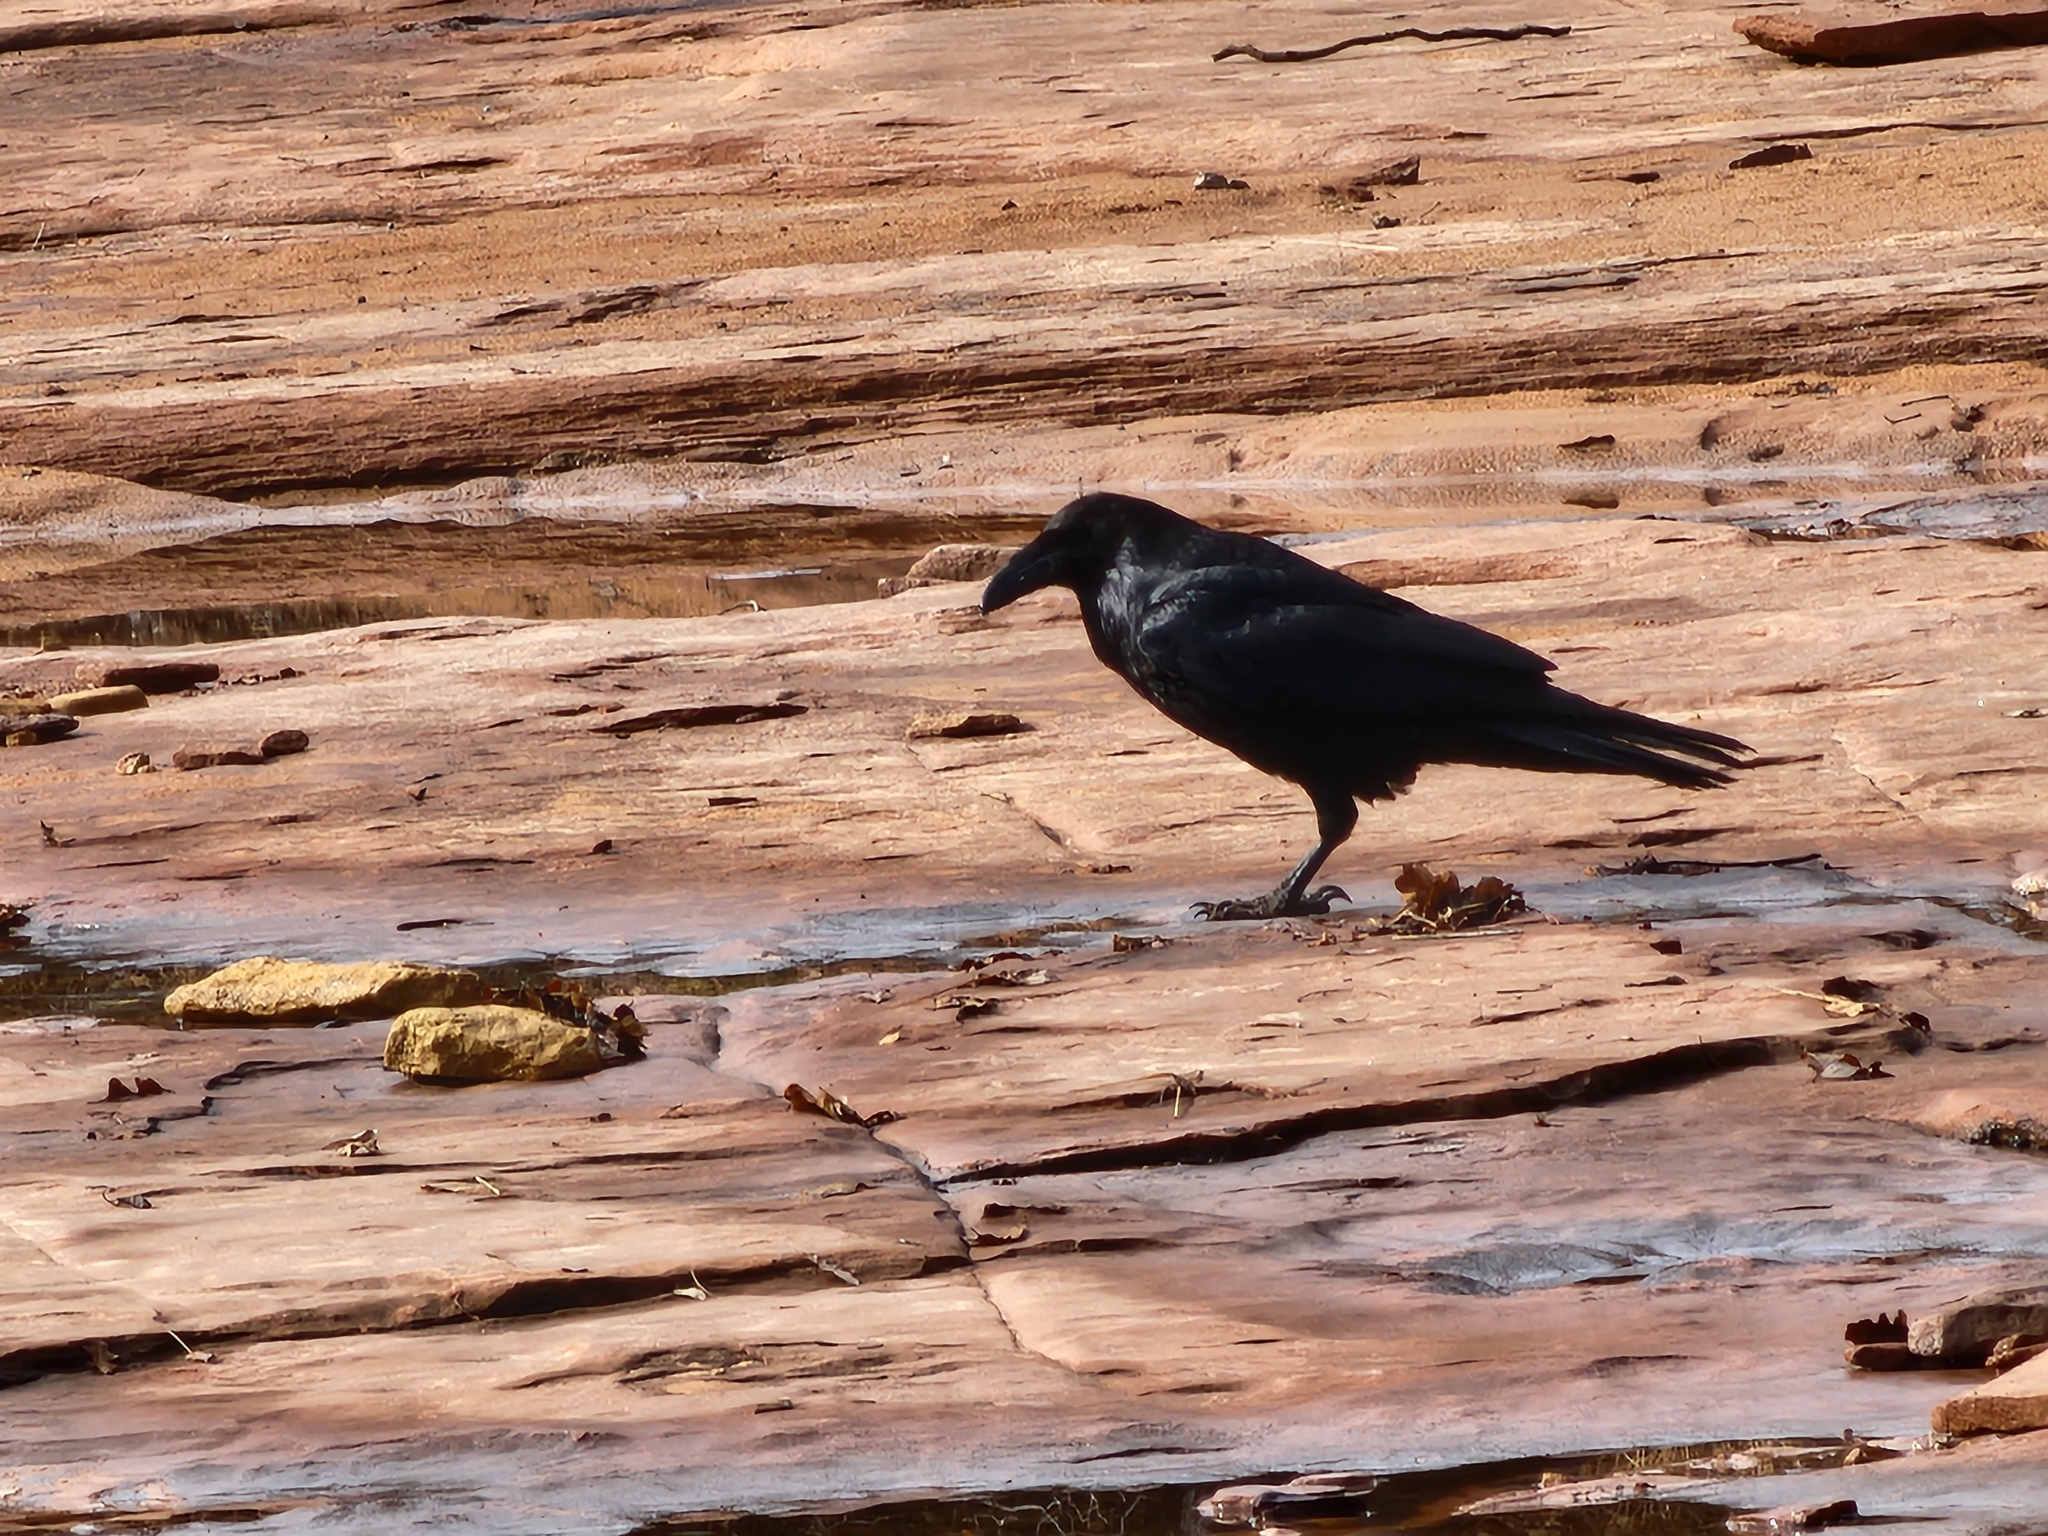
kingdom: Animalia
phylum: Chordata
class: Aves
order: Passeriformes
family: Corvidae
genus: Corvus
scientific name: Corvus corax
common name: Common raven
